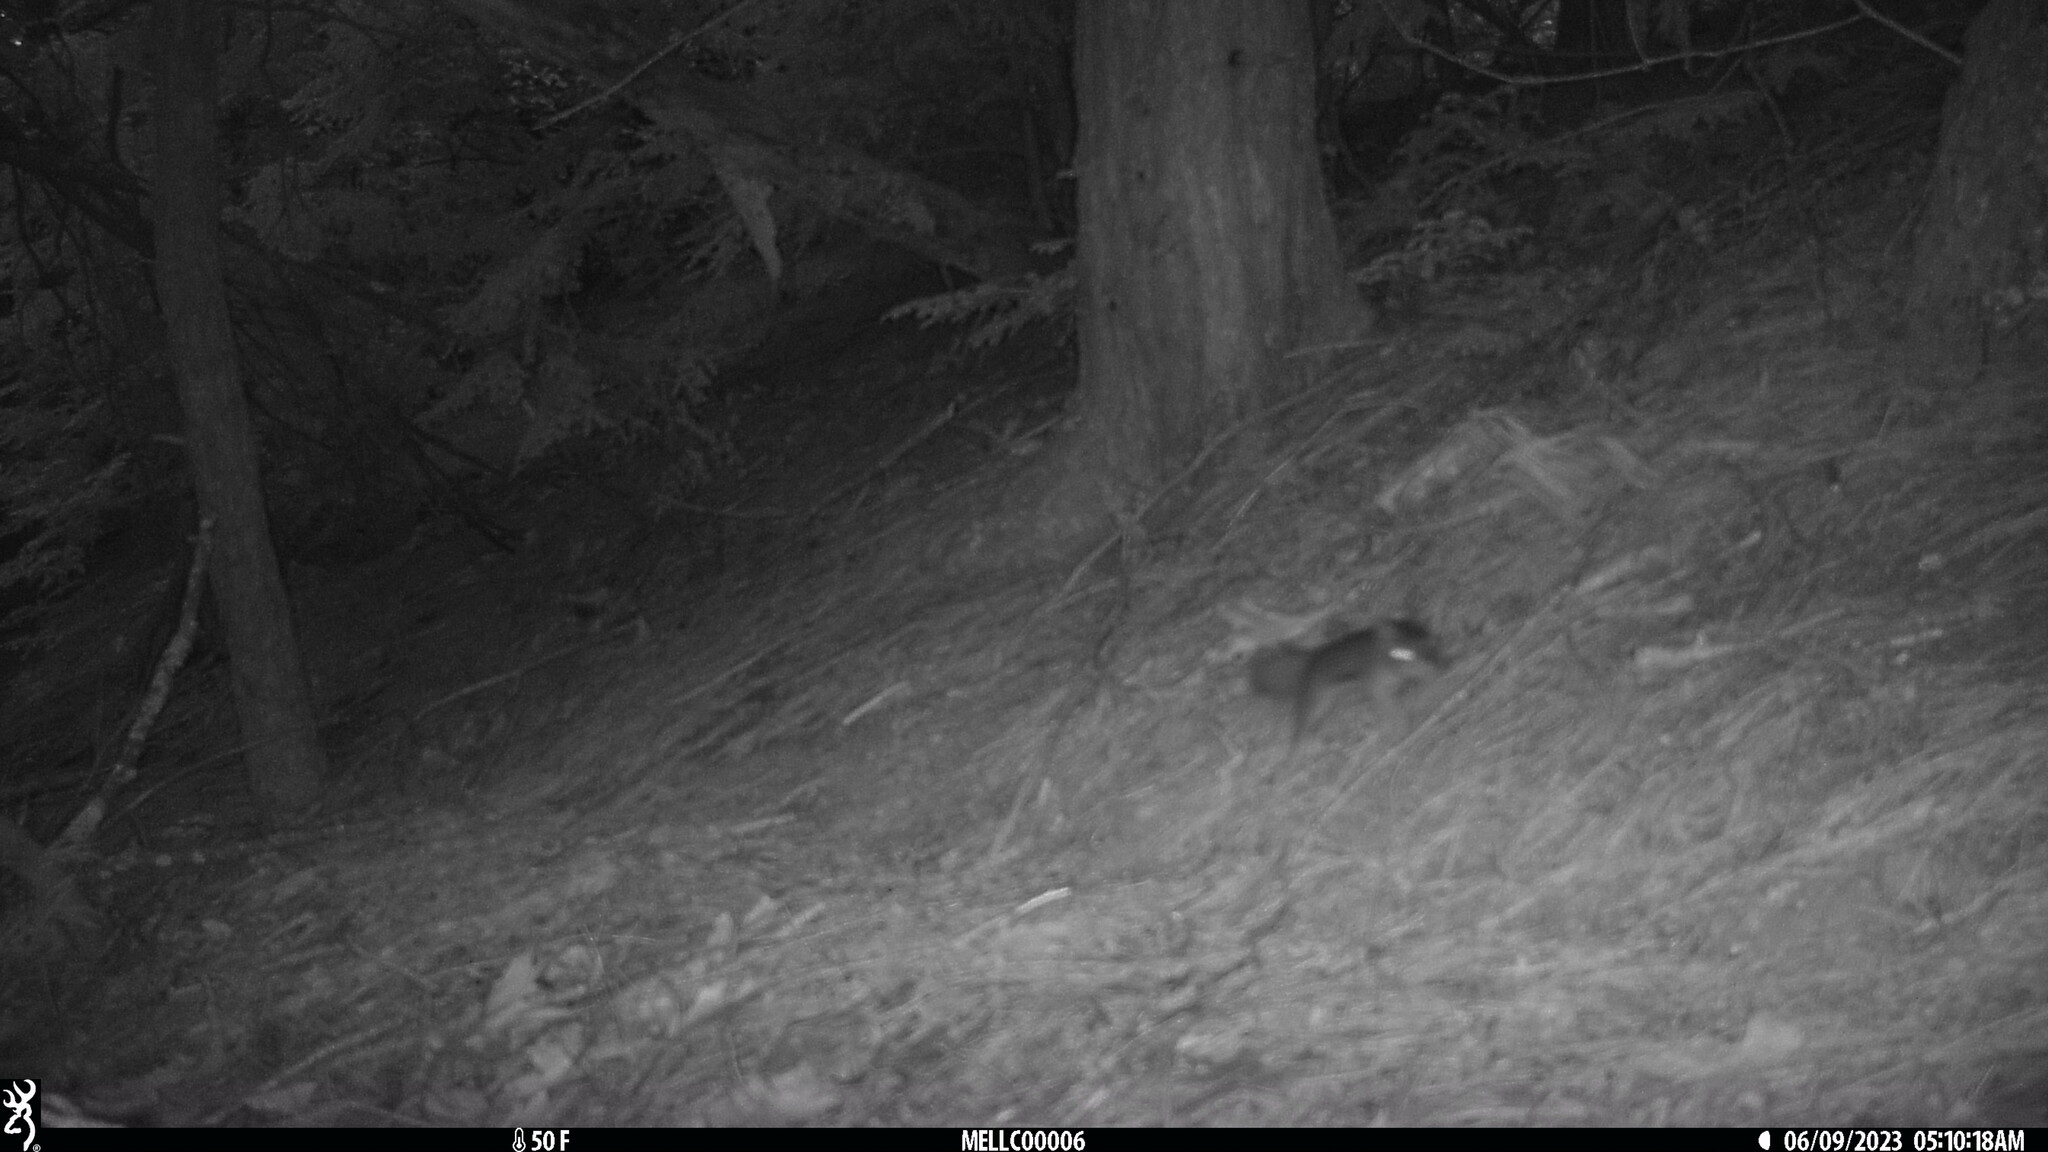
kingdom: Animalia
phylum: Chordata
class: Mammalia
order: Rodentia
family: Sciuridae
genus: Tamiasciurus
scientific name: Tamiasciurus hudsonicus
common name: Red squirrel
